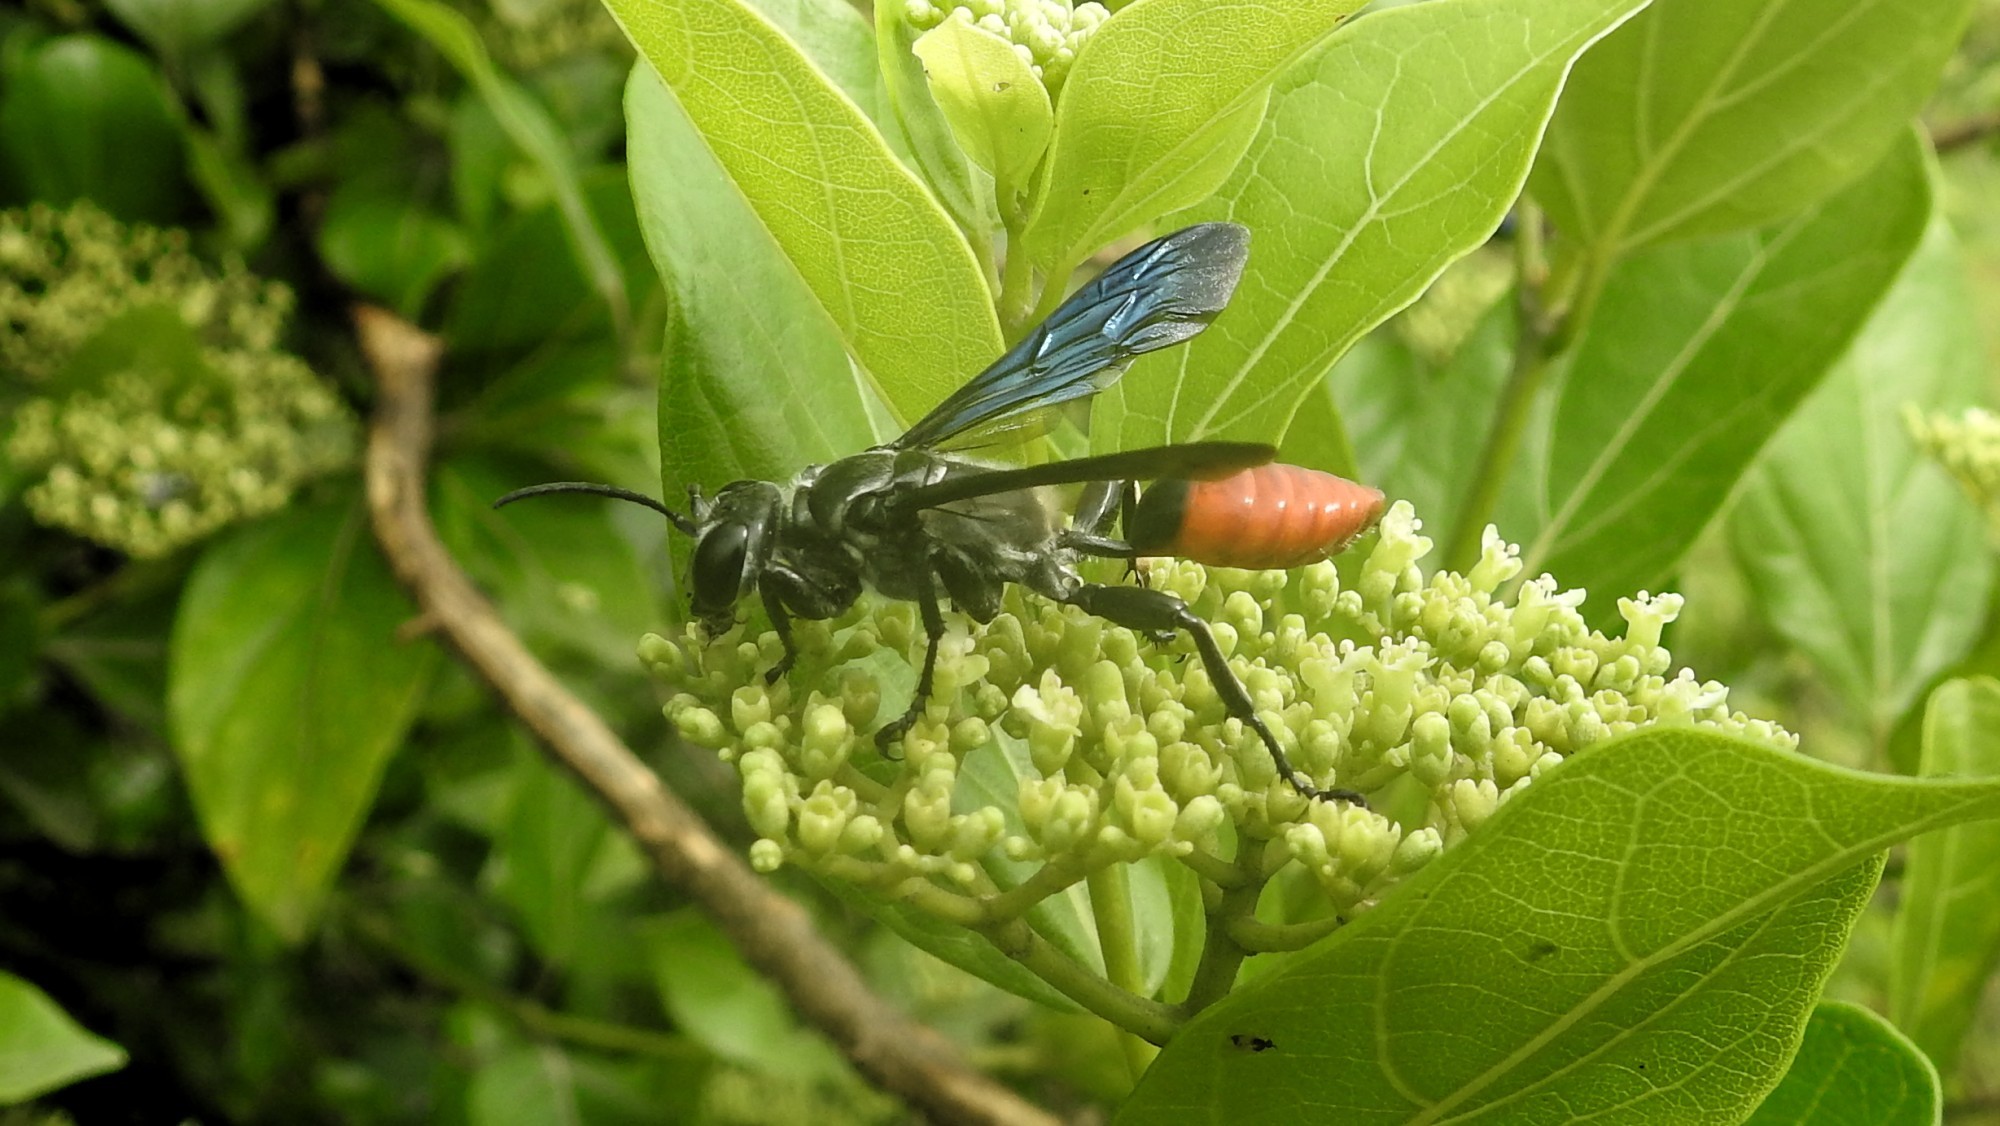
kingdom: Animalia
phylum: Arthropoda
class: Insecta
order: Hymenoptera
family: Sphecidae
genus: Isodontia
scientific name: Isodontia edax
